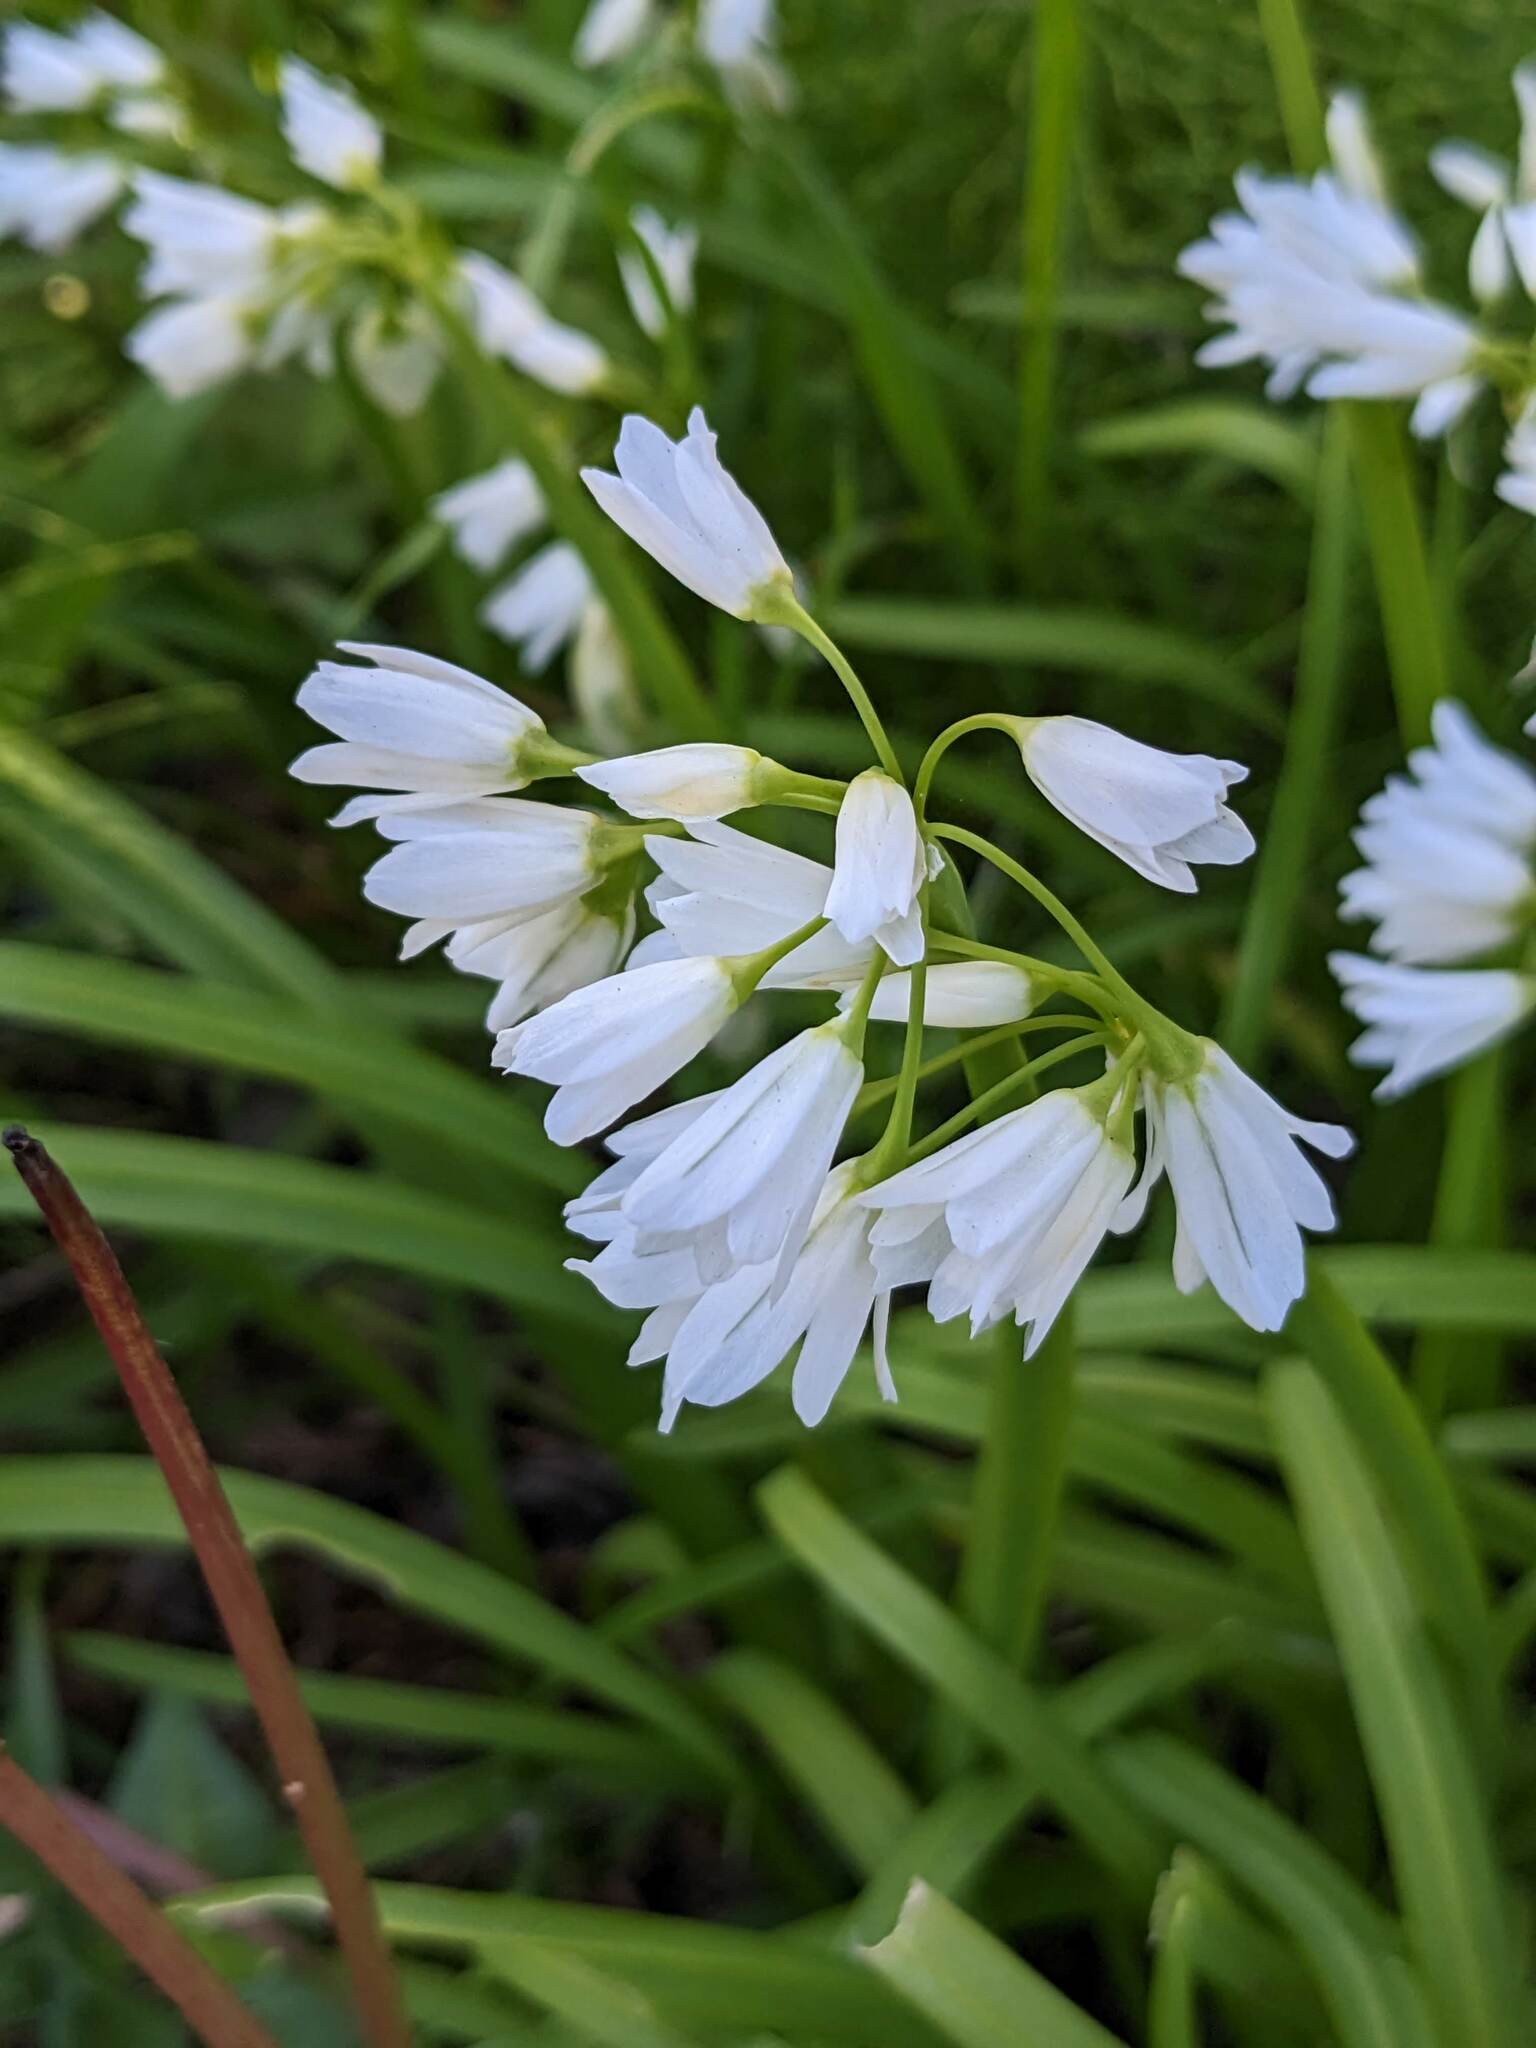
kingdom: Plantae
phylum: Tracheophyta
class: Liliopsida
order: Asparagales
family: Amaryllidaceae
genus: Allium
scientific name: Allium triquetrum
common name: Three-cornered garlic
